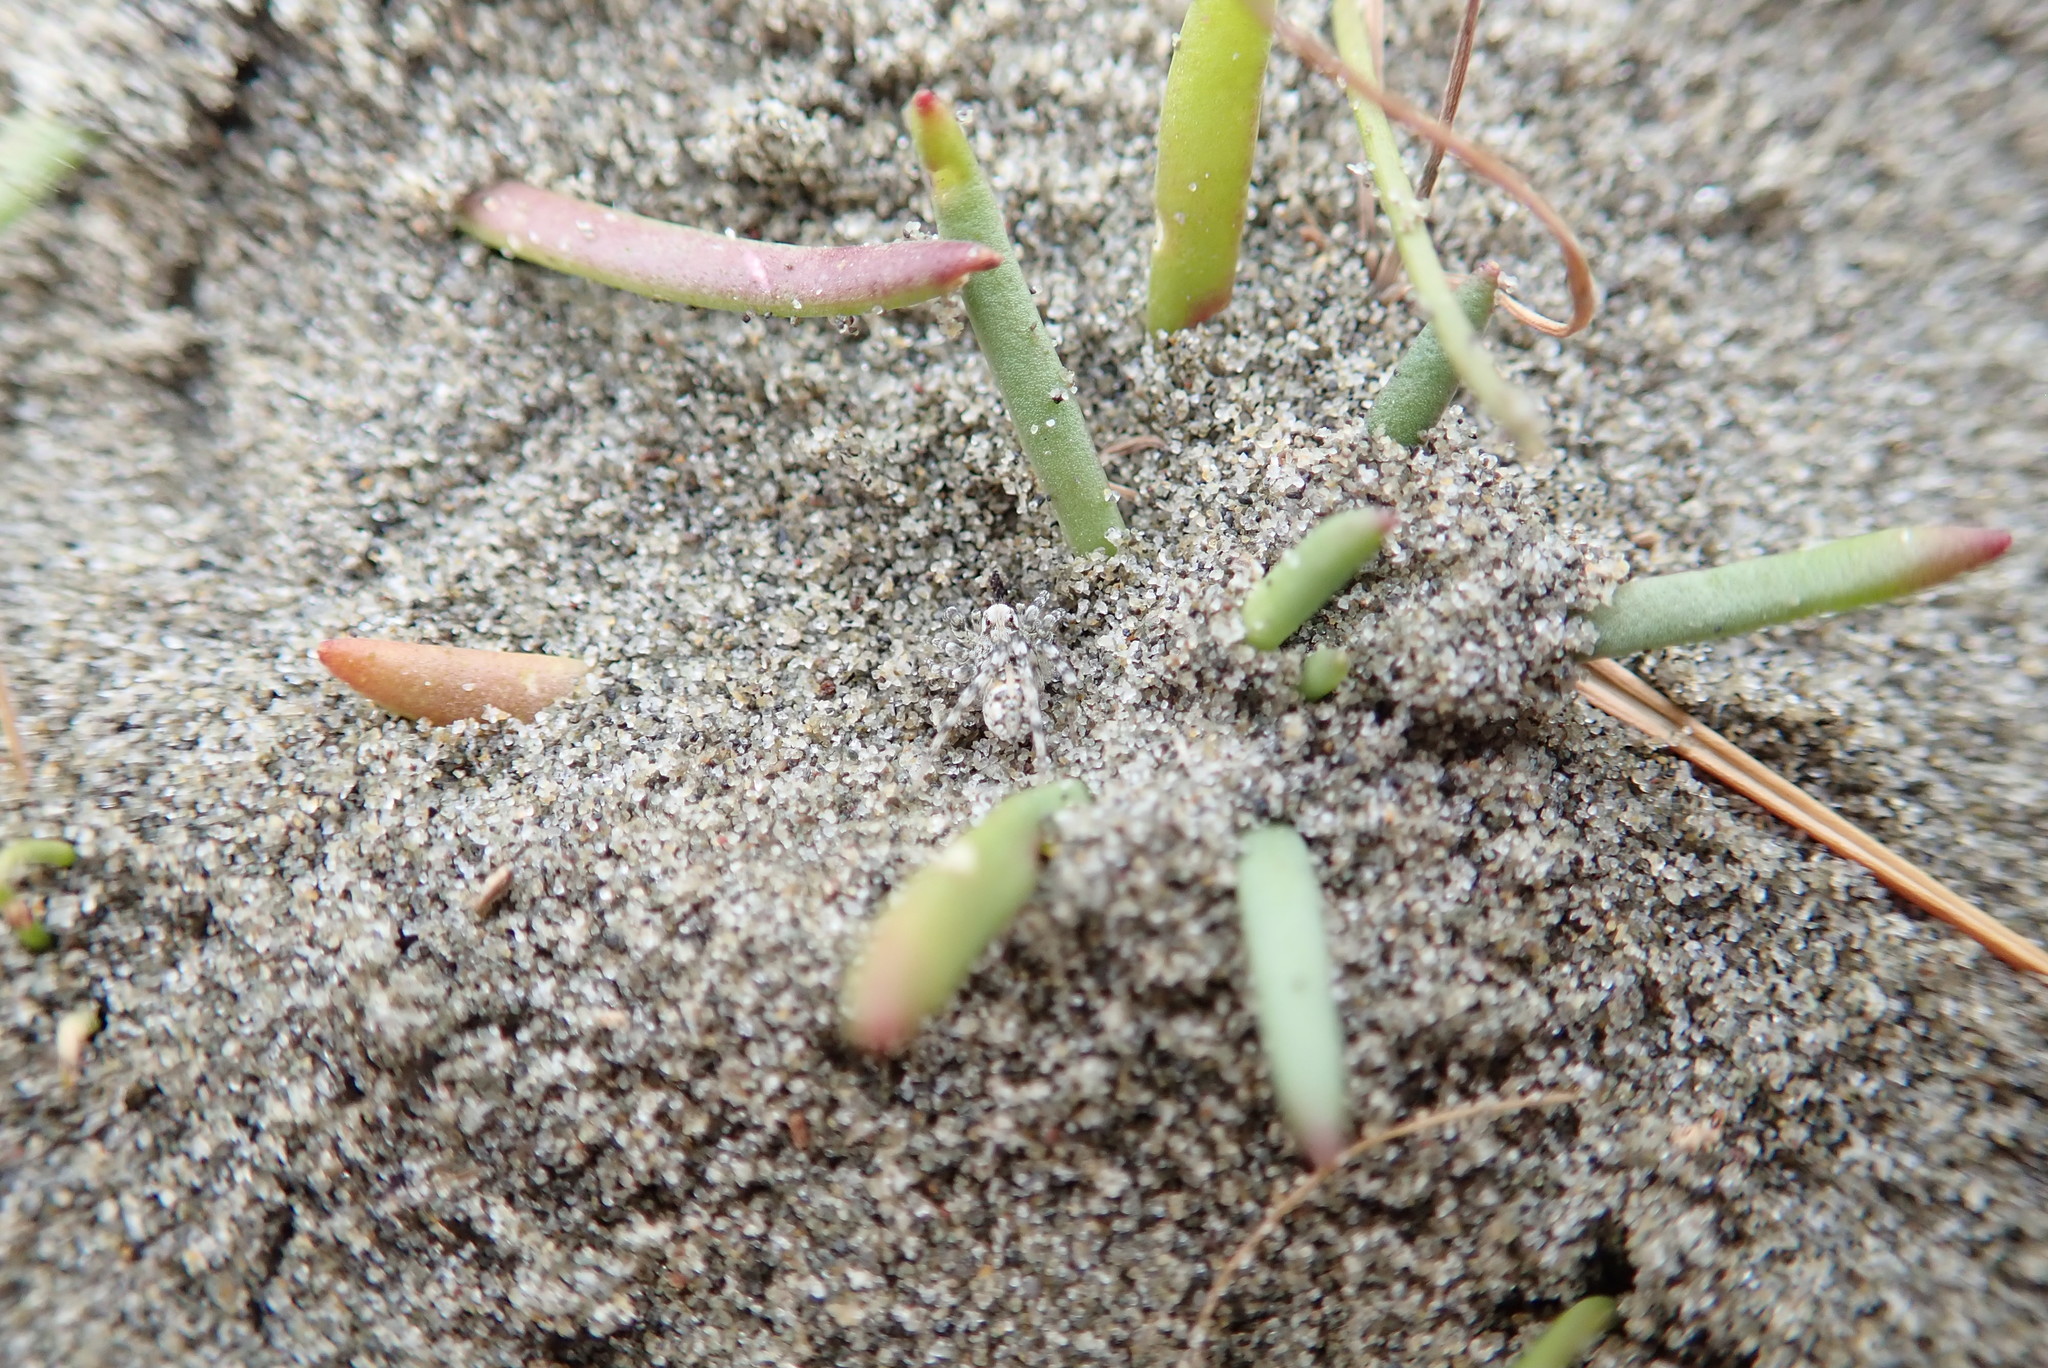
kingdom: Animalia
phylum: Arthropoda
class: Arachnida
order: Araneae
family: Lycosidae
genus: Anoteropsis
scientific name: Anoteropsis litoralis
